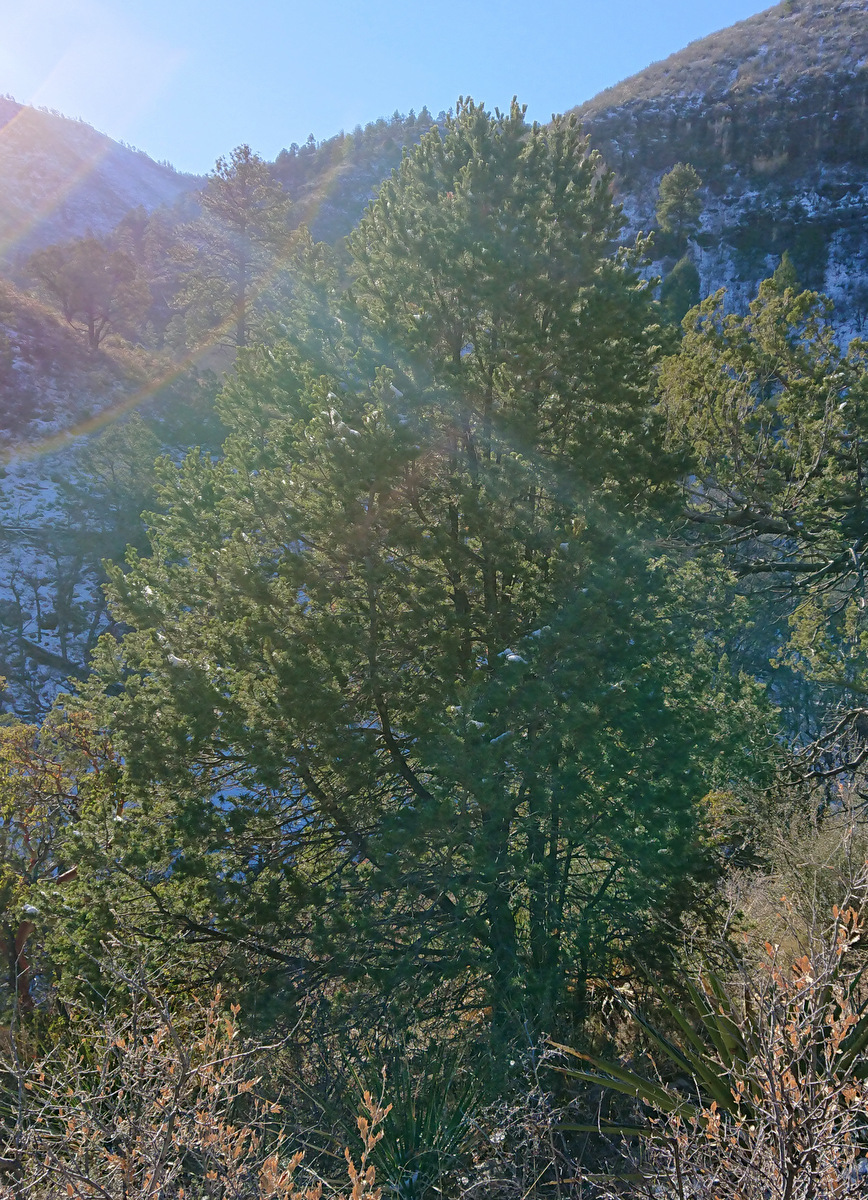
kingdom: Plantae
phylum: Tracheophyta
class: Pinopsida
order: Pinales
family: Pinaceae
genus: Pinus
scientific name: Pinus edulis
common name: Colorado pinyon
